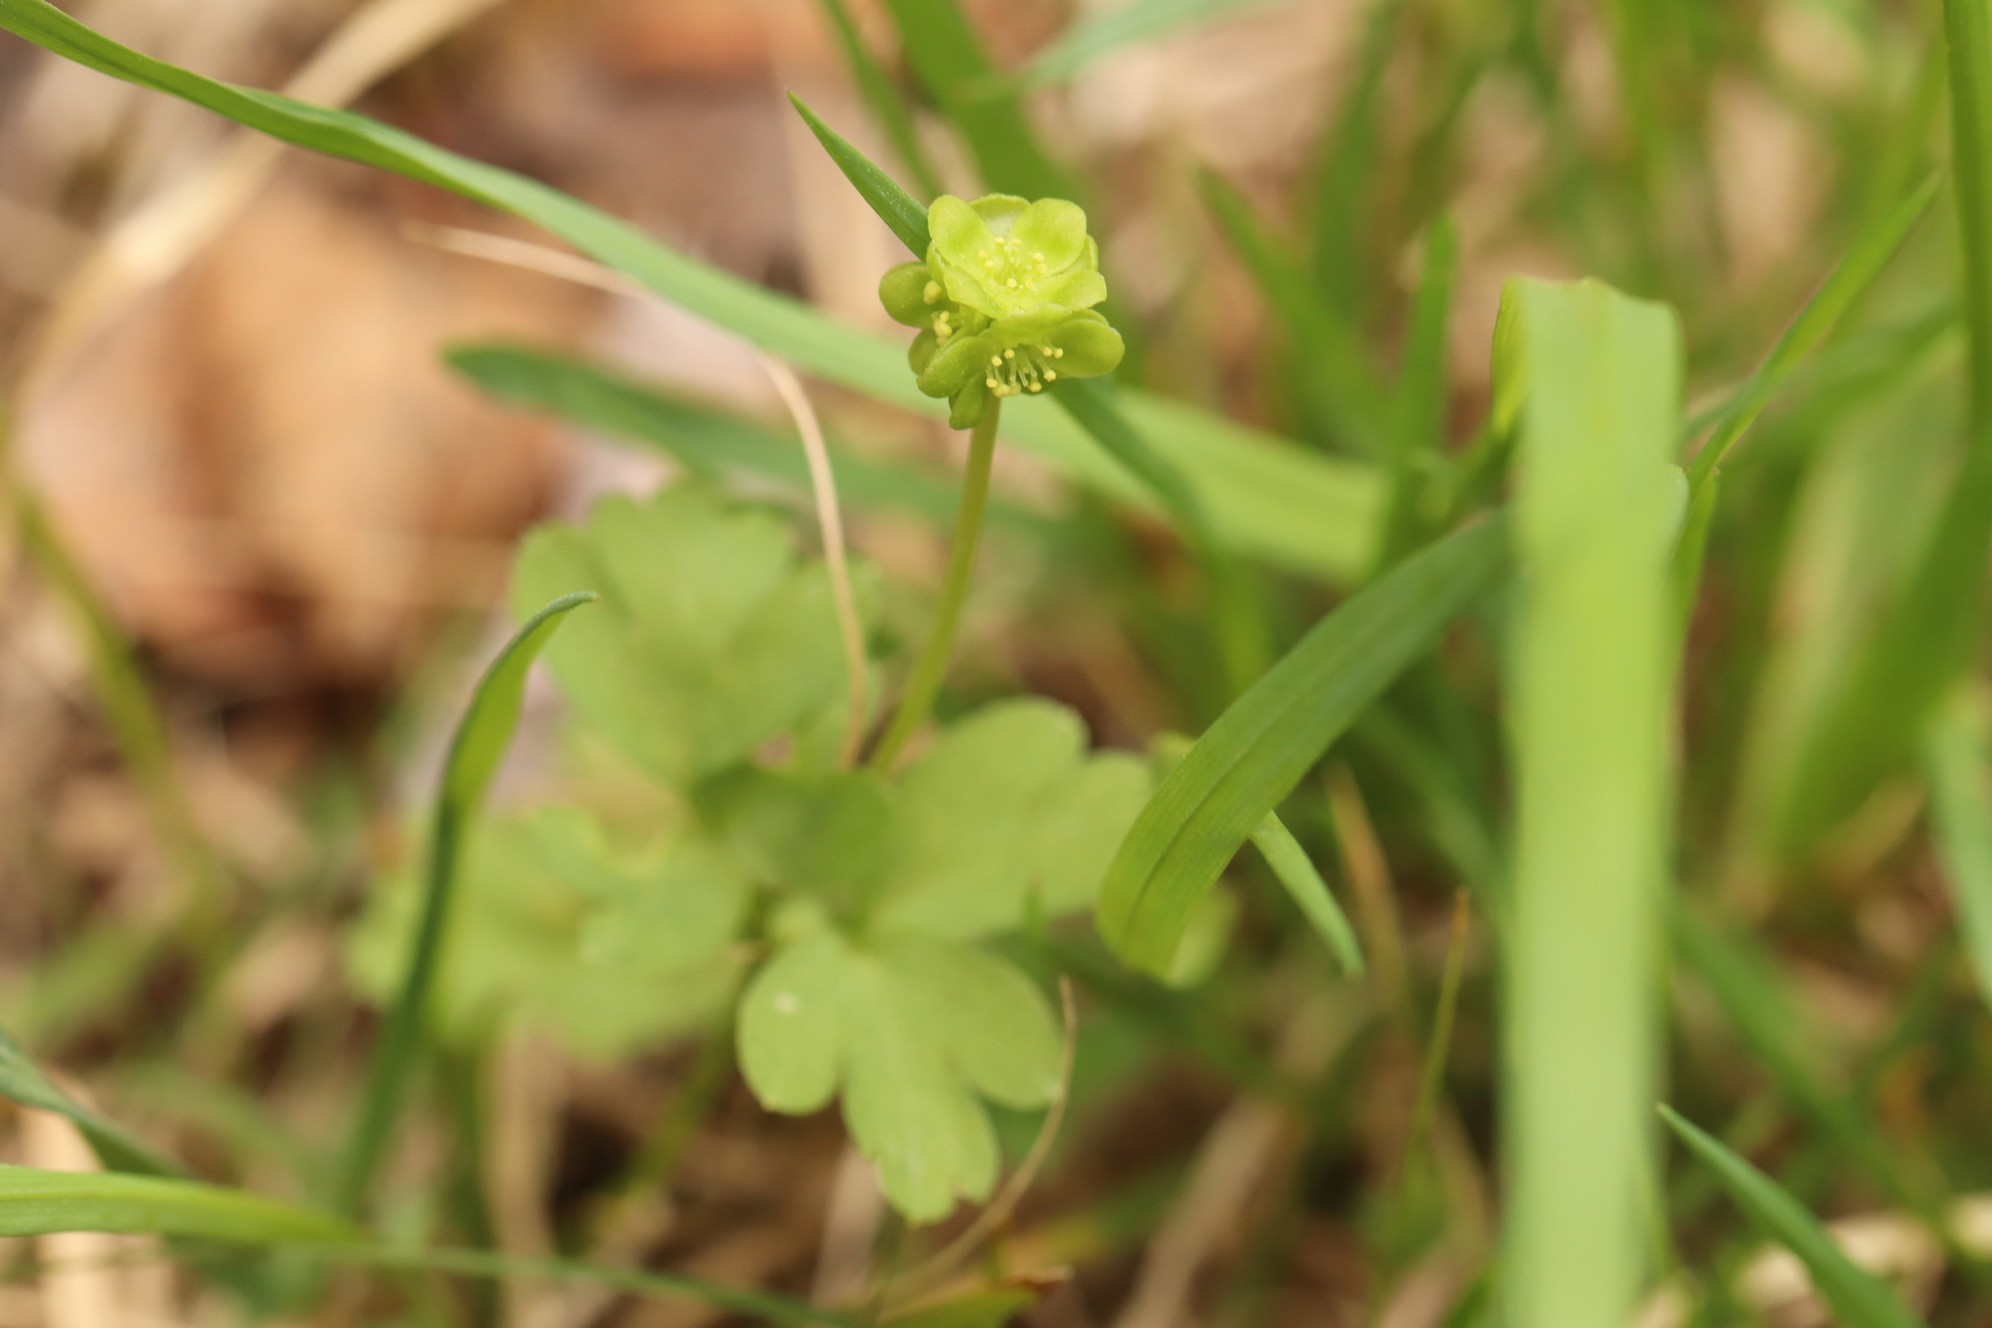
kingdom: Plantae
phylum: Tracheophyta
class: Magnoliopsida
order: Dipsacales
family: Viburnaceae
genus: Adoxa
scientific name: Adoxa moschatellina
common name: Moschatel
